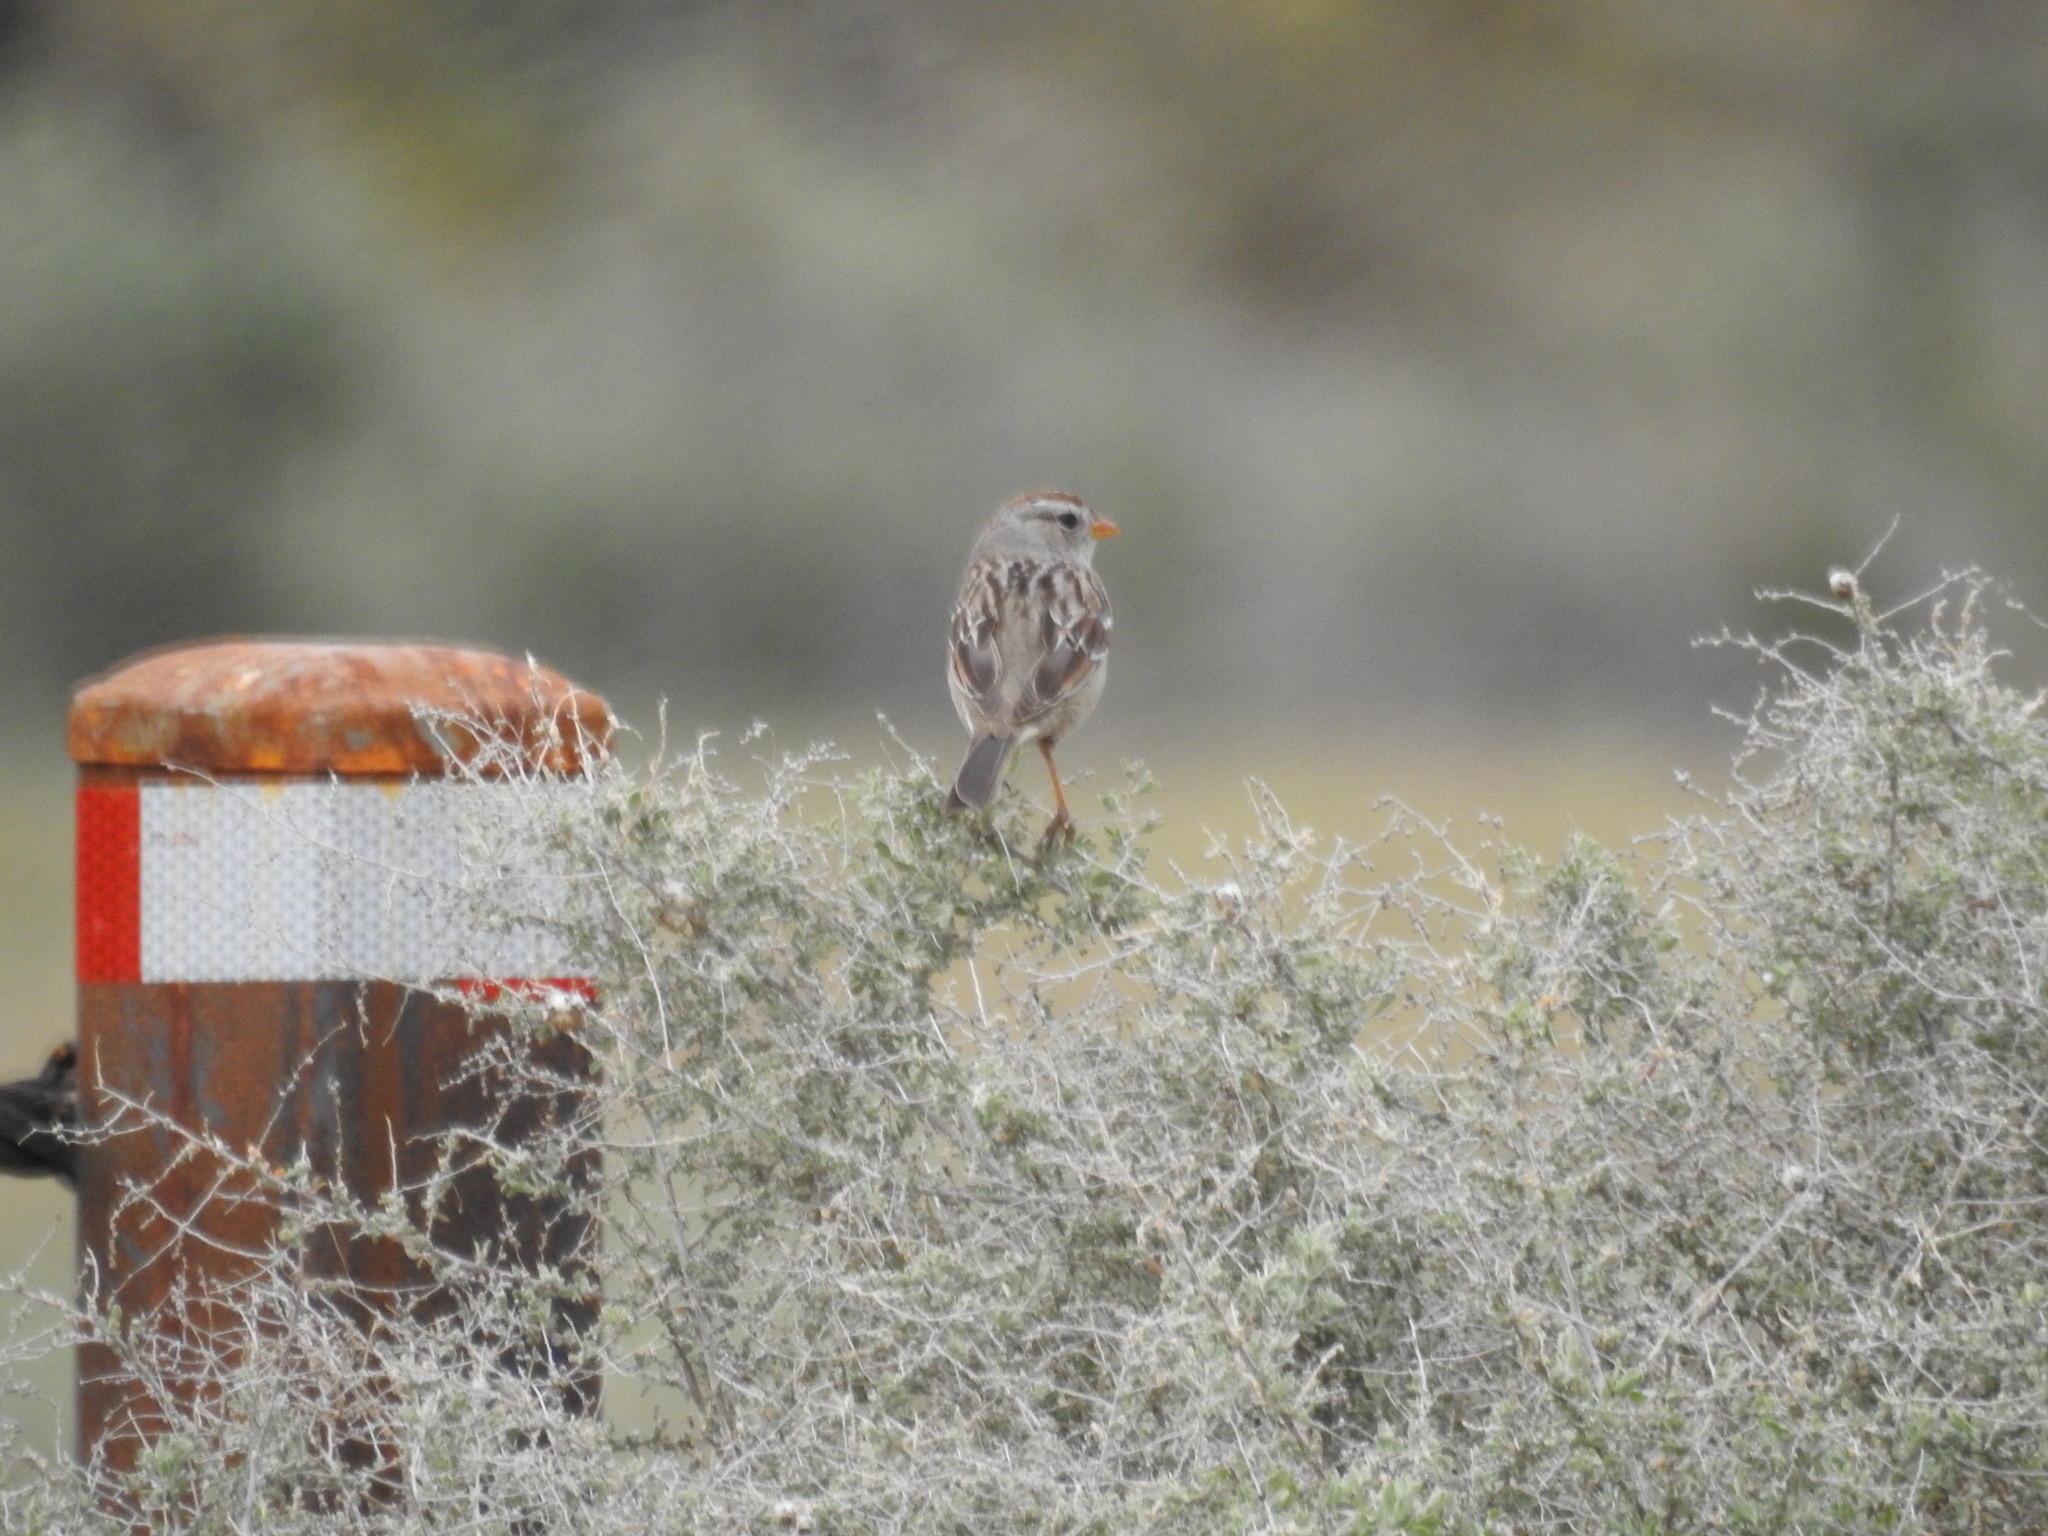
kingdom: Animalia
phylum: Chordata
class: Aves
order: Passeriformes
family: Passerellidae
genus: Zonotrichia
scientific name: Zonotrichia leucophrys
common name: White-crowned sparrow
